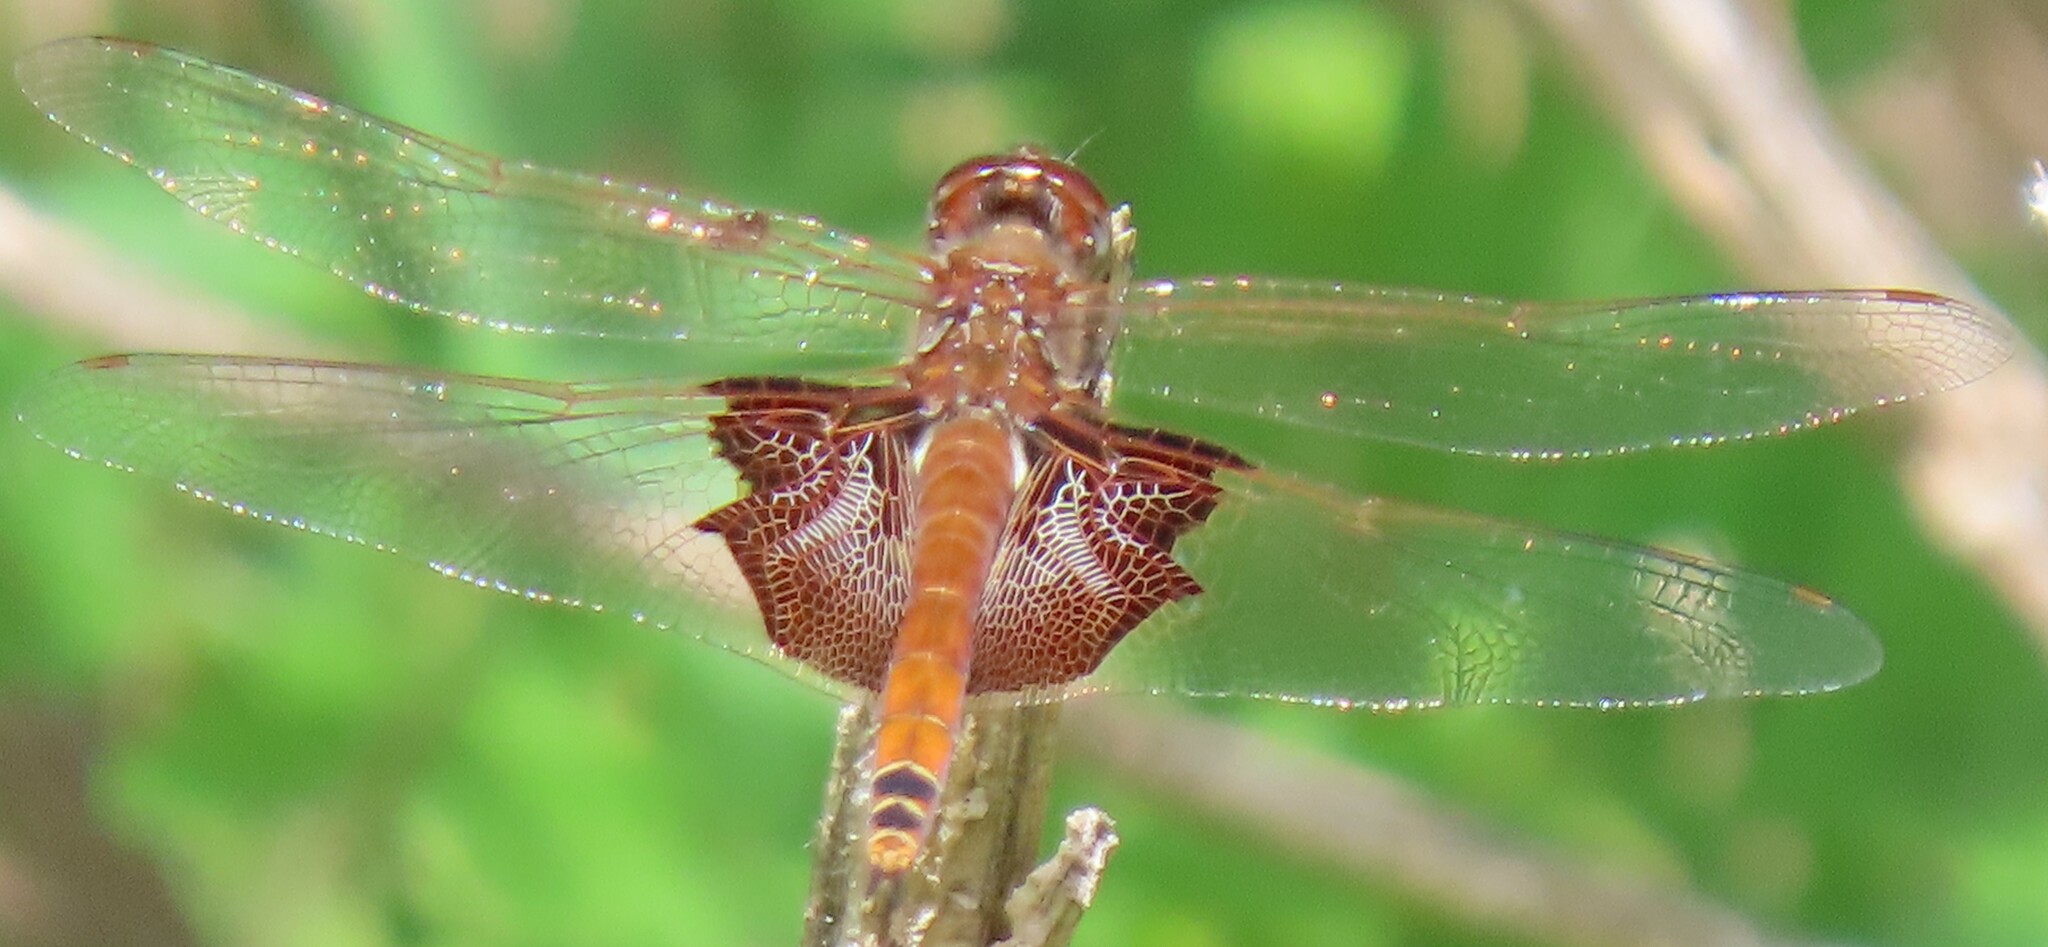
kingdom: Animalia
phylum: Arthropoda
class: Insecta
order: Odonata
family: Libellulidae
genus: Tramea
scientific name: Tramea carolina
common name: Carolina saddlebags
